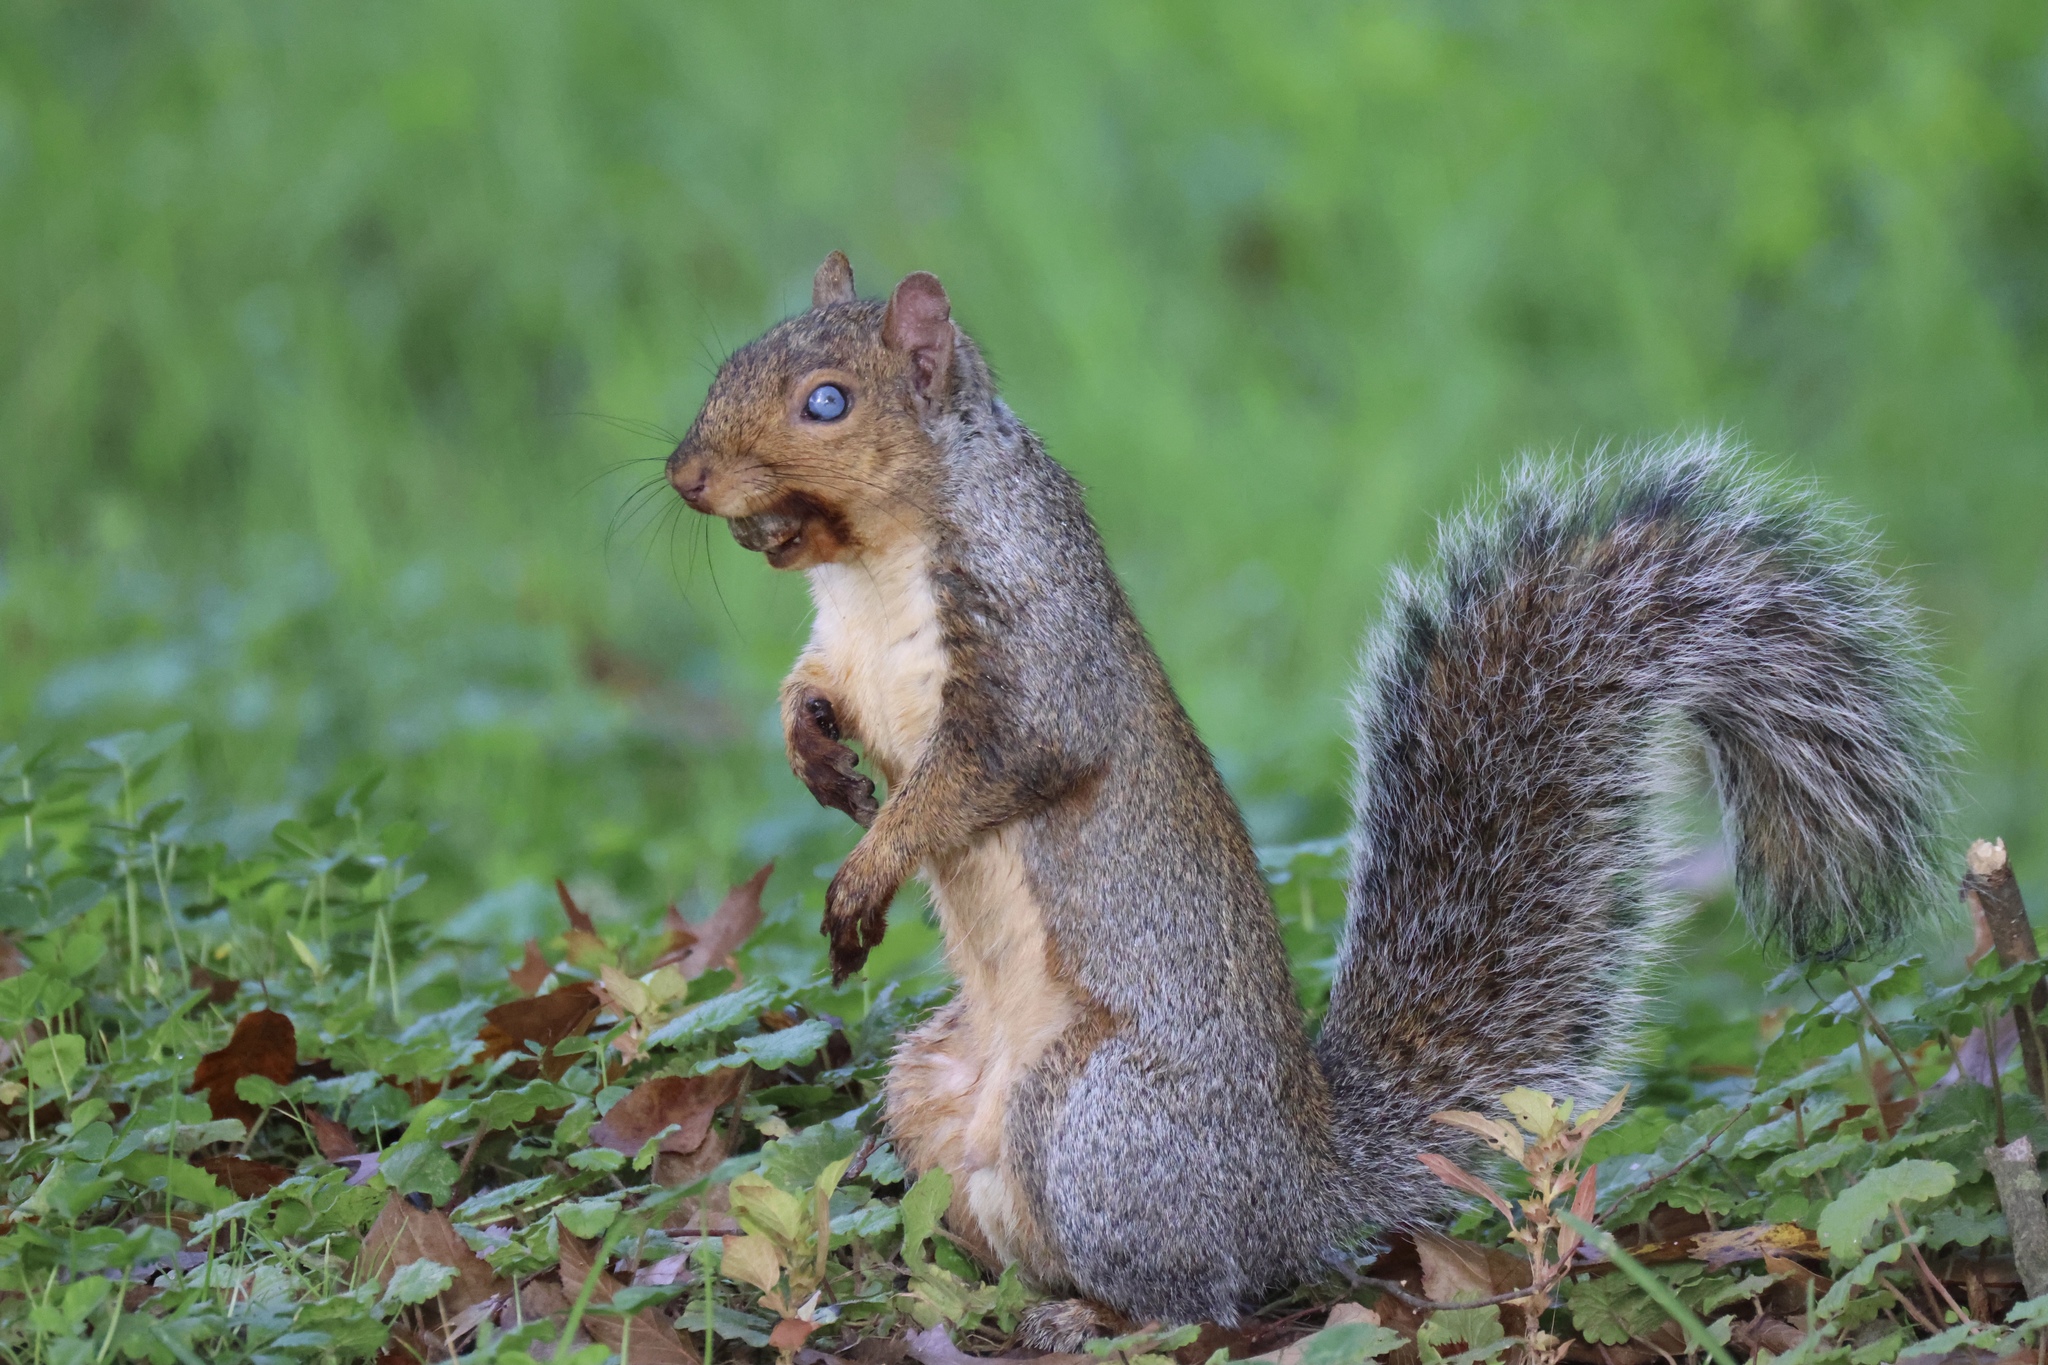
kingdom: Animalia
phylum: Chordata
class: Mammalia
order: Rodentia
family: Sciuridae
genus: Sciurus
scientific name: Sciurus carolinensis
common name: Eastern gray squirrel
